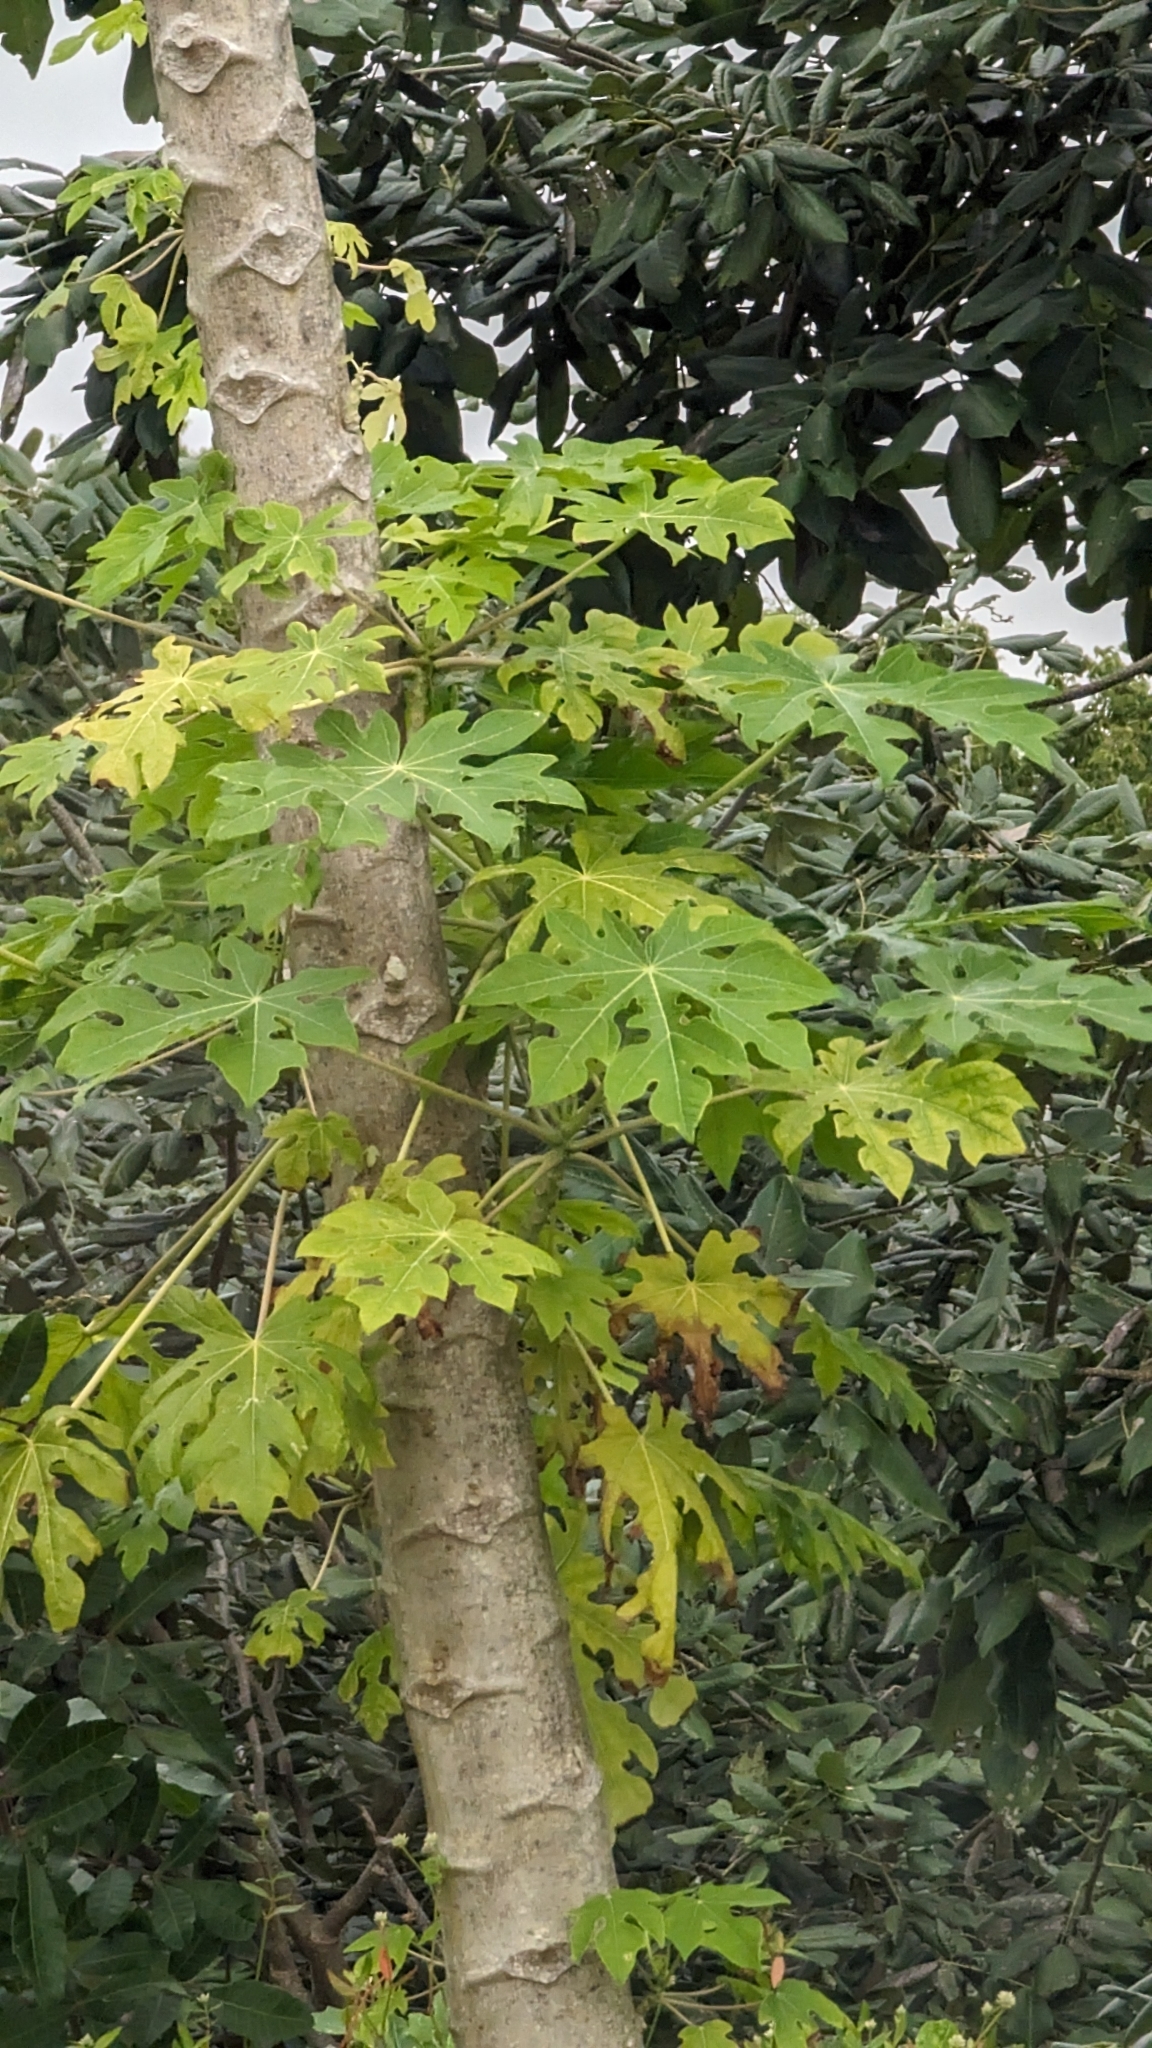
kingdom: Plantae
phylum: Tracheophyta
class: Magnoliopsida
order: Brassicales
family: Caricaceae
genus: Carica
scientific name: Carica papaya
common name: Papaya
